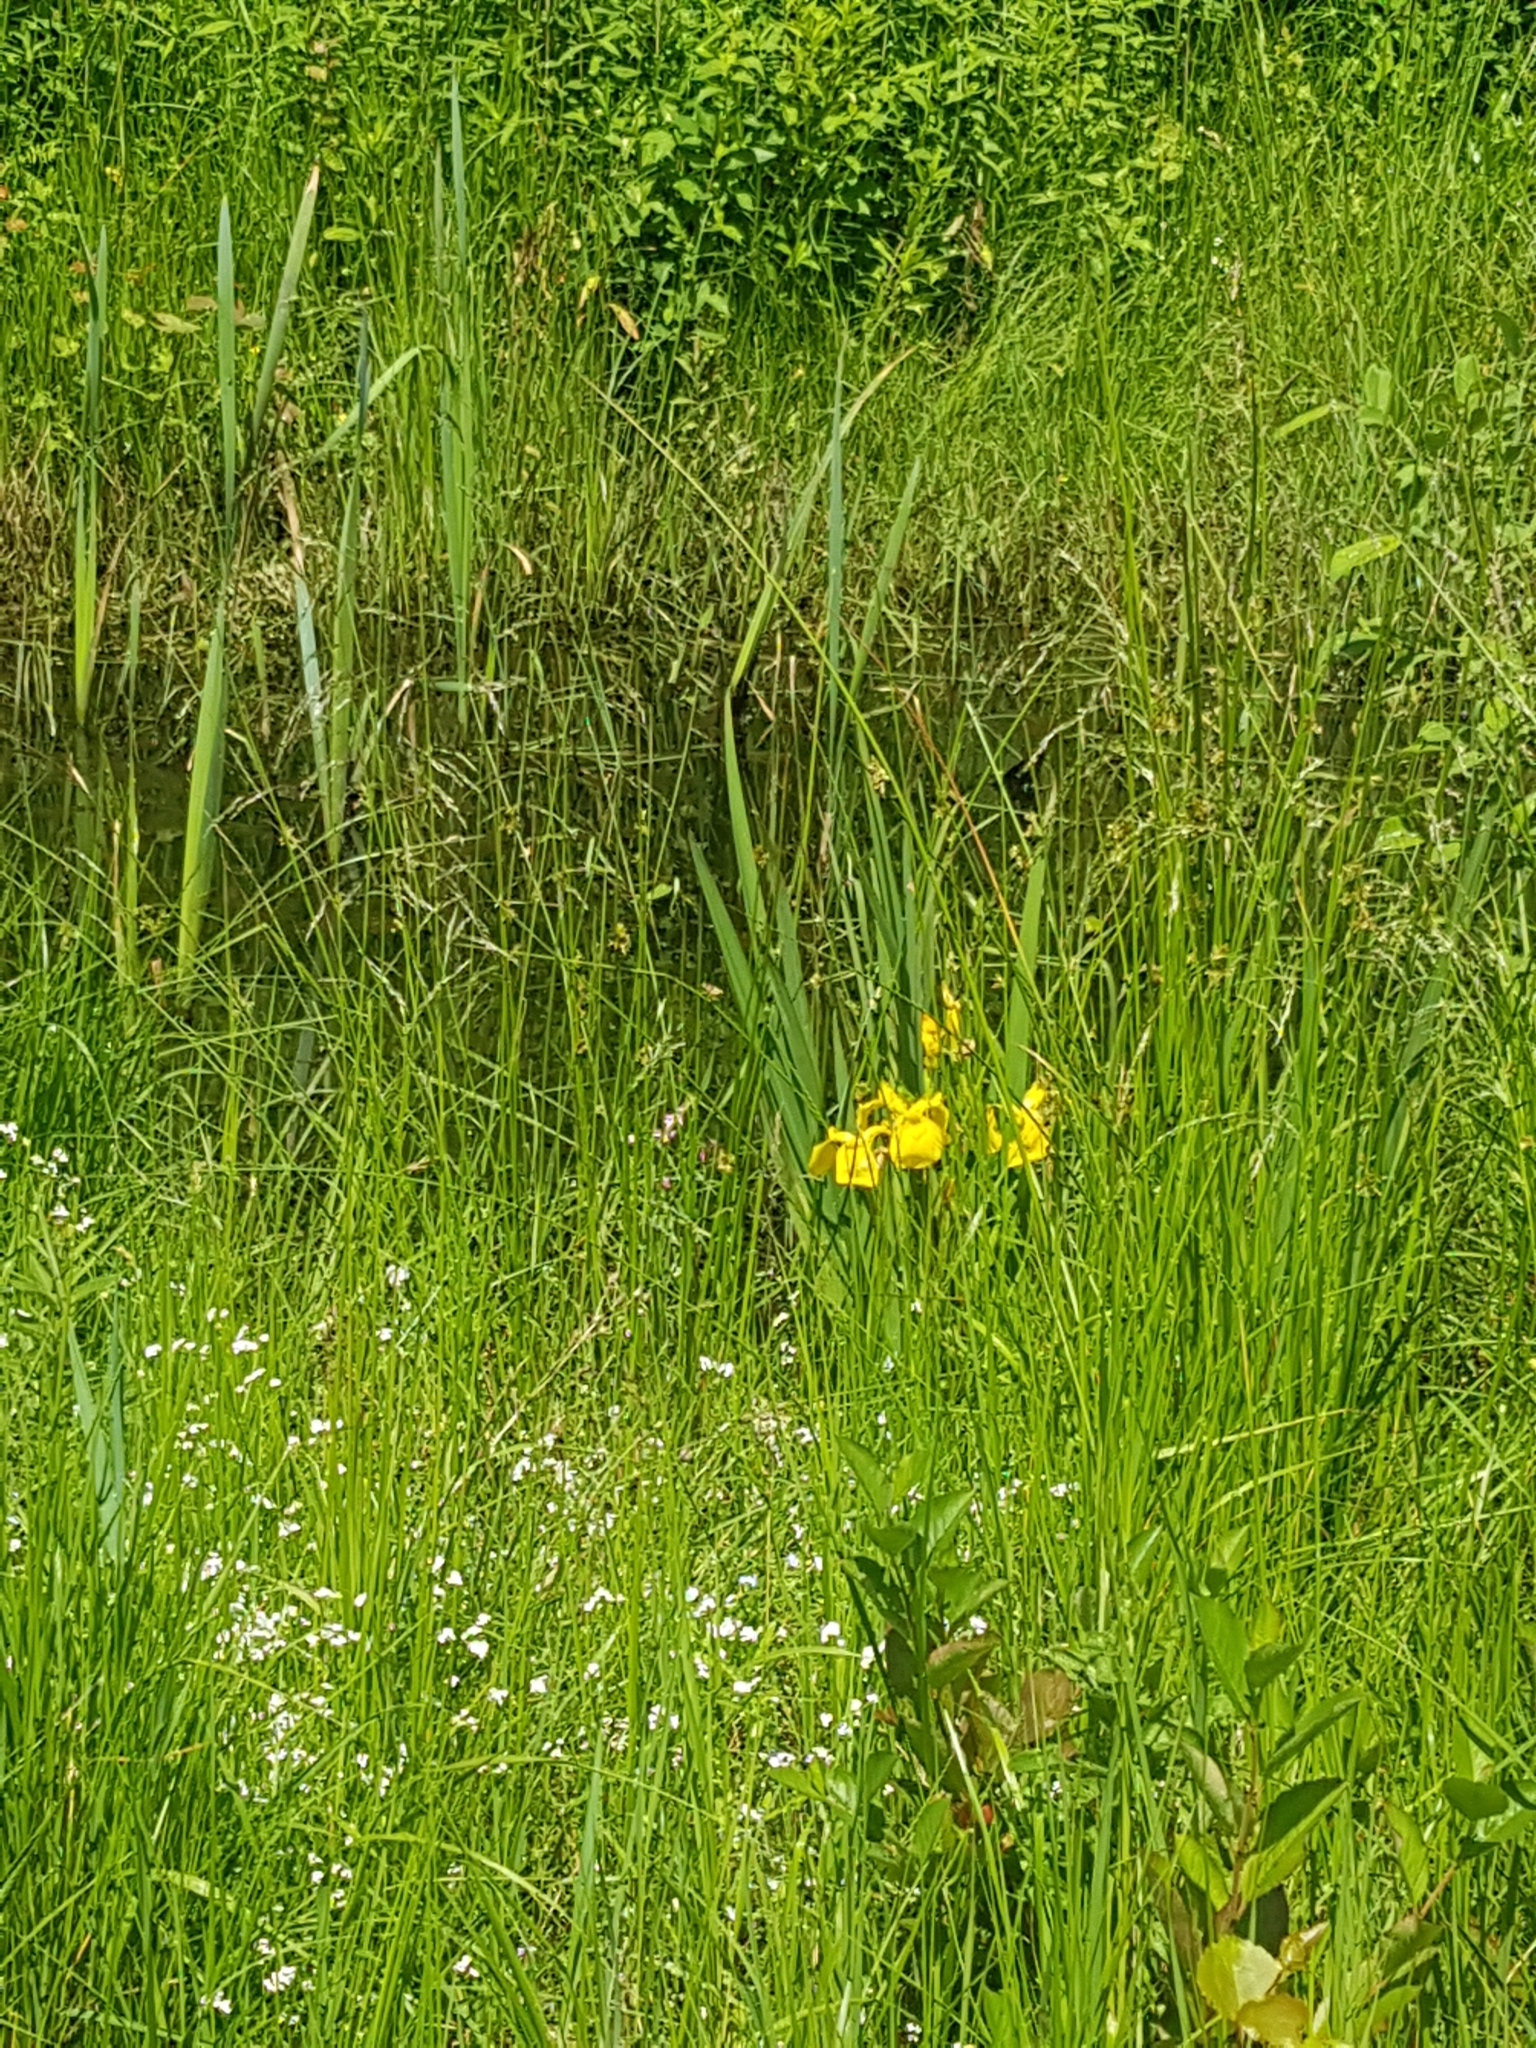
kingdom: Plantae
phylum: Tracheophyta
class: Liliopsida
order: Asparagales
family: Iridaceae
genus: Iris
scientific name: Iris pseudacorus
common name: Yellow flag
